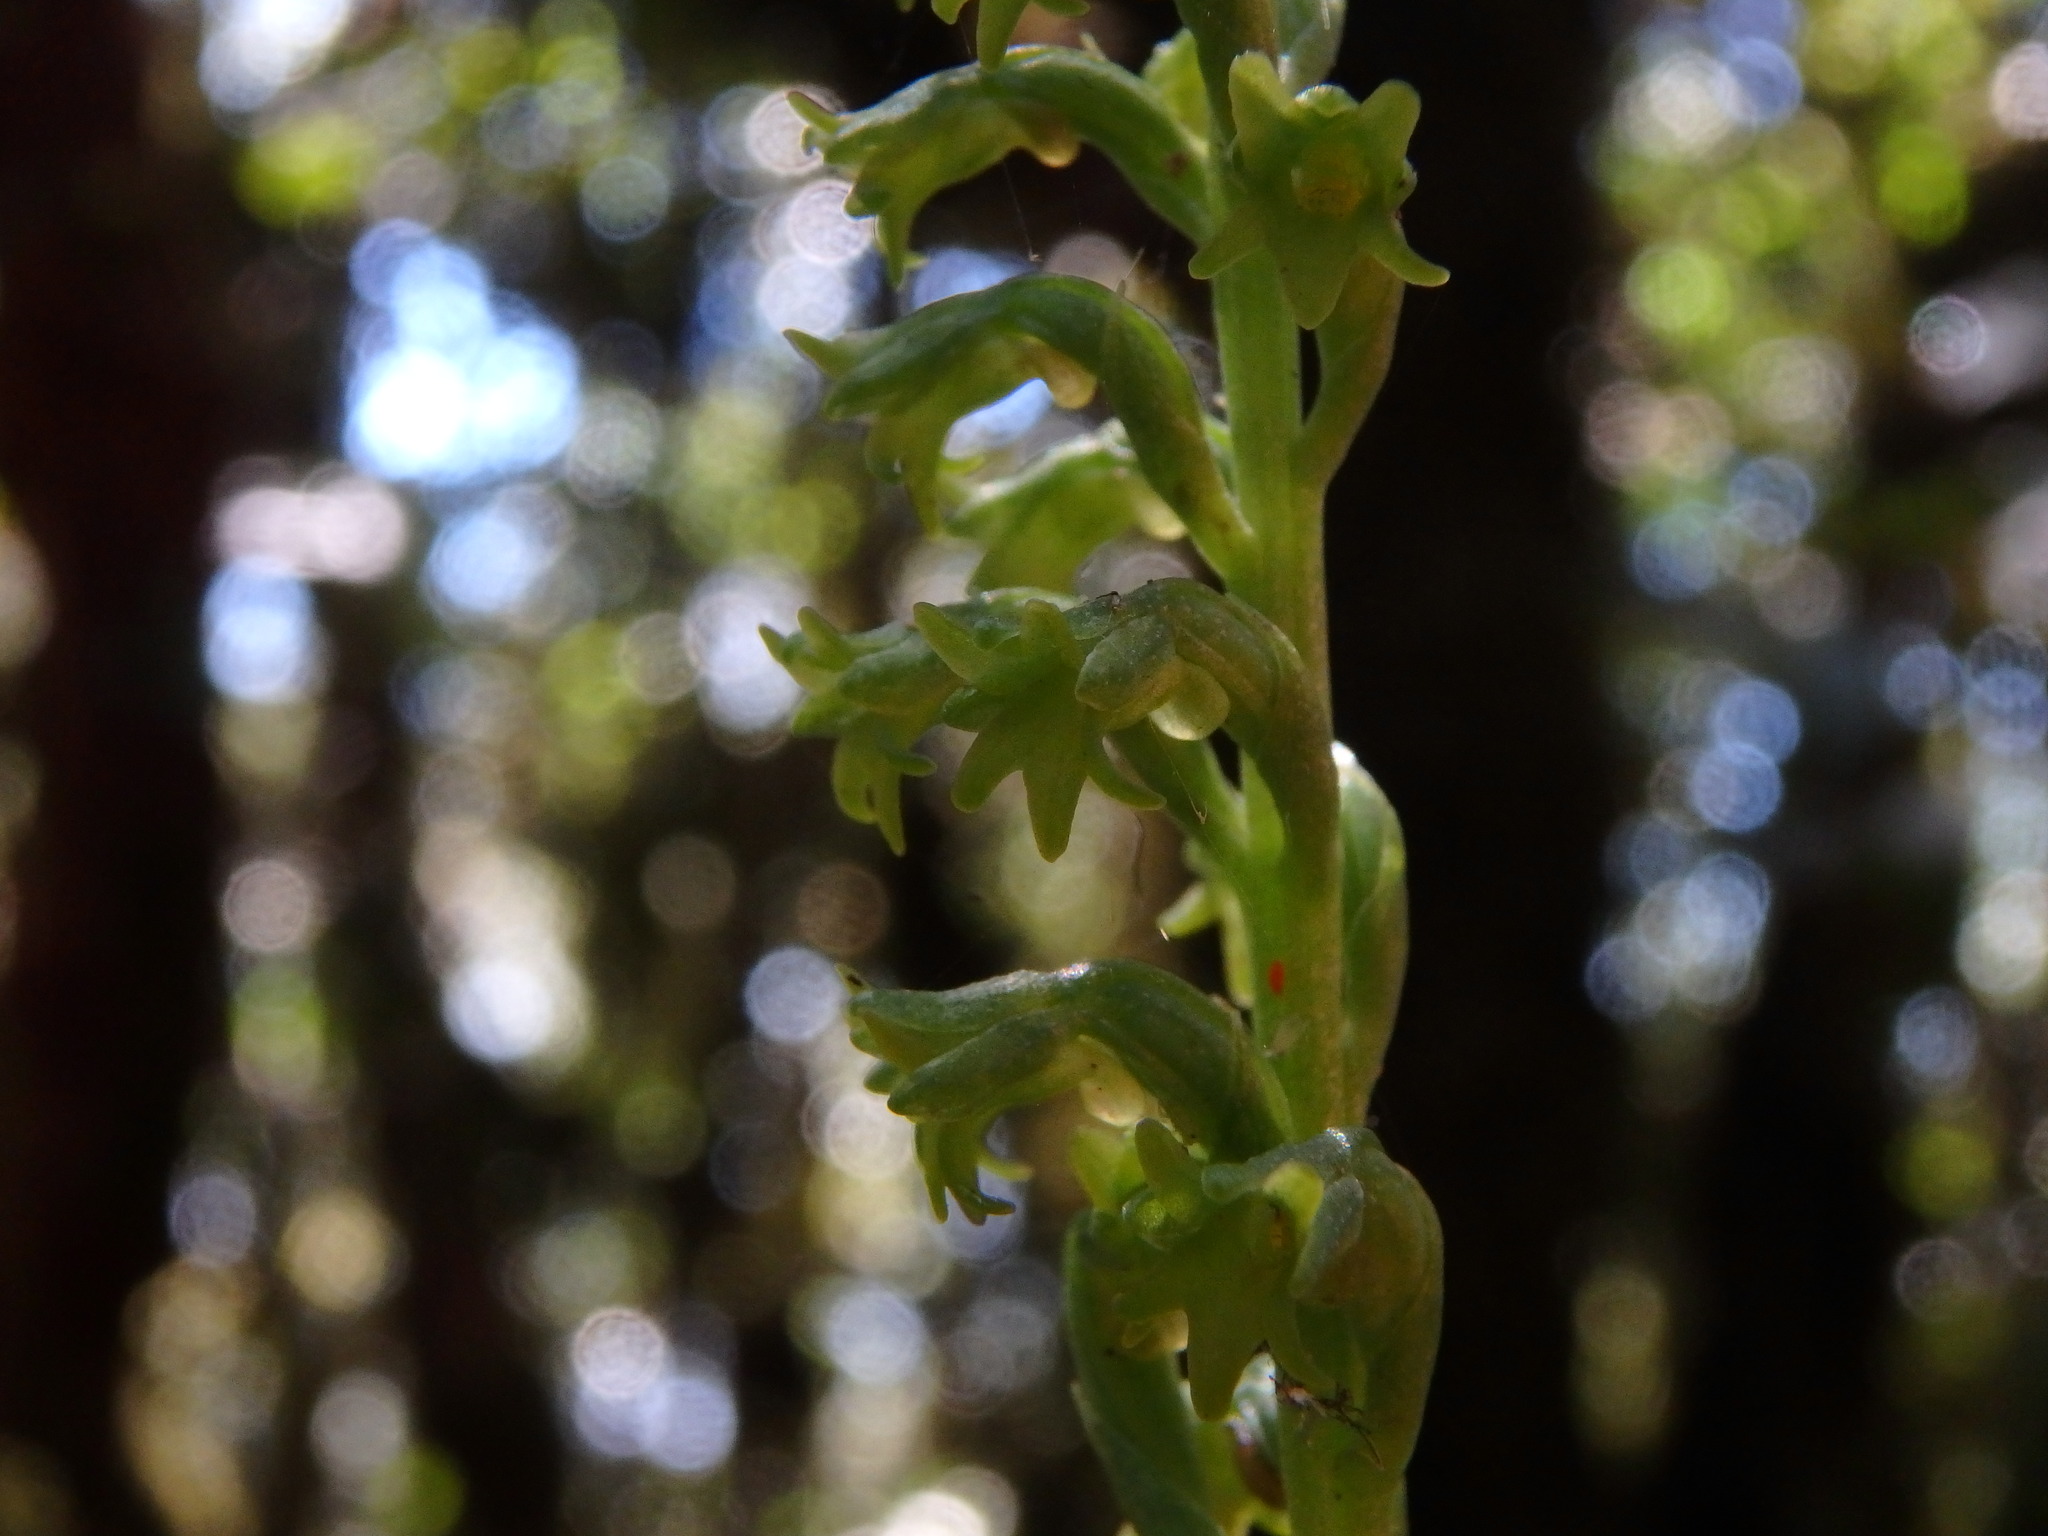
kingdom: Plantae
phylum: Tracheophyta
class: Liliopsida
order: Asparagales
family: Orchidaceae
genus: Gennaria
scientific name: Gennaria diphylla
